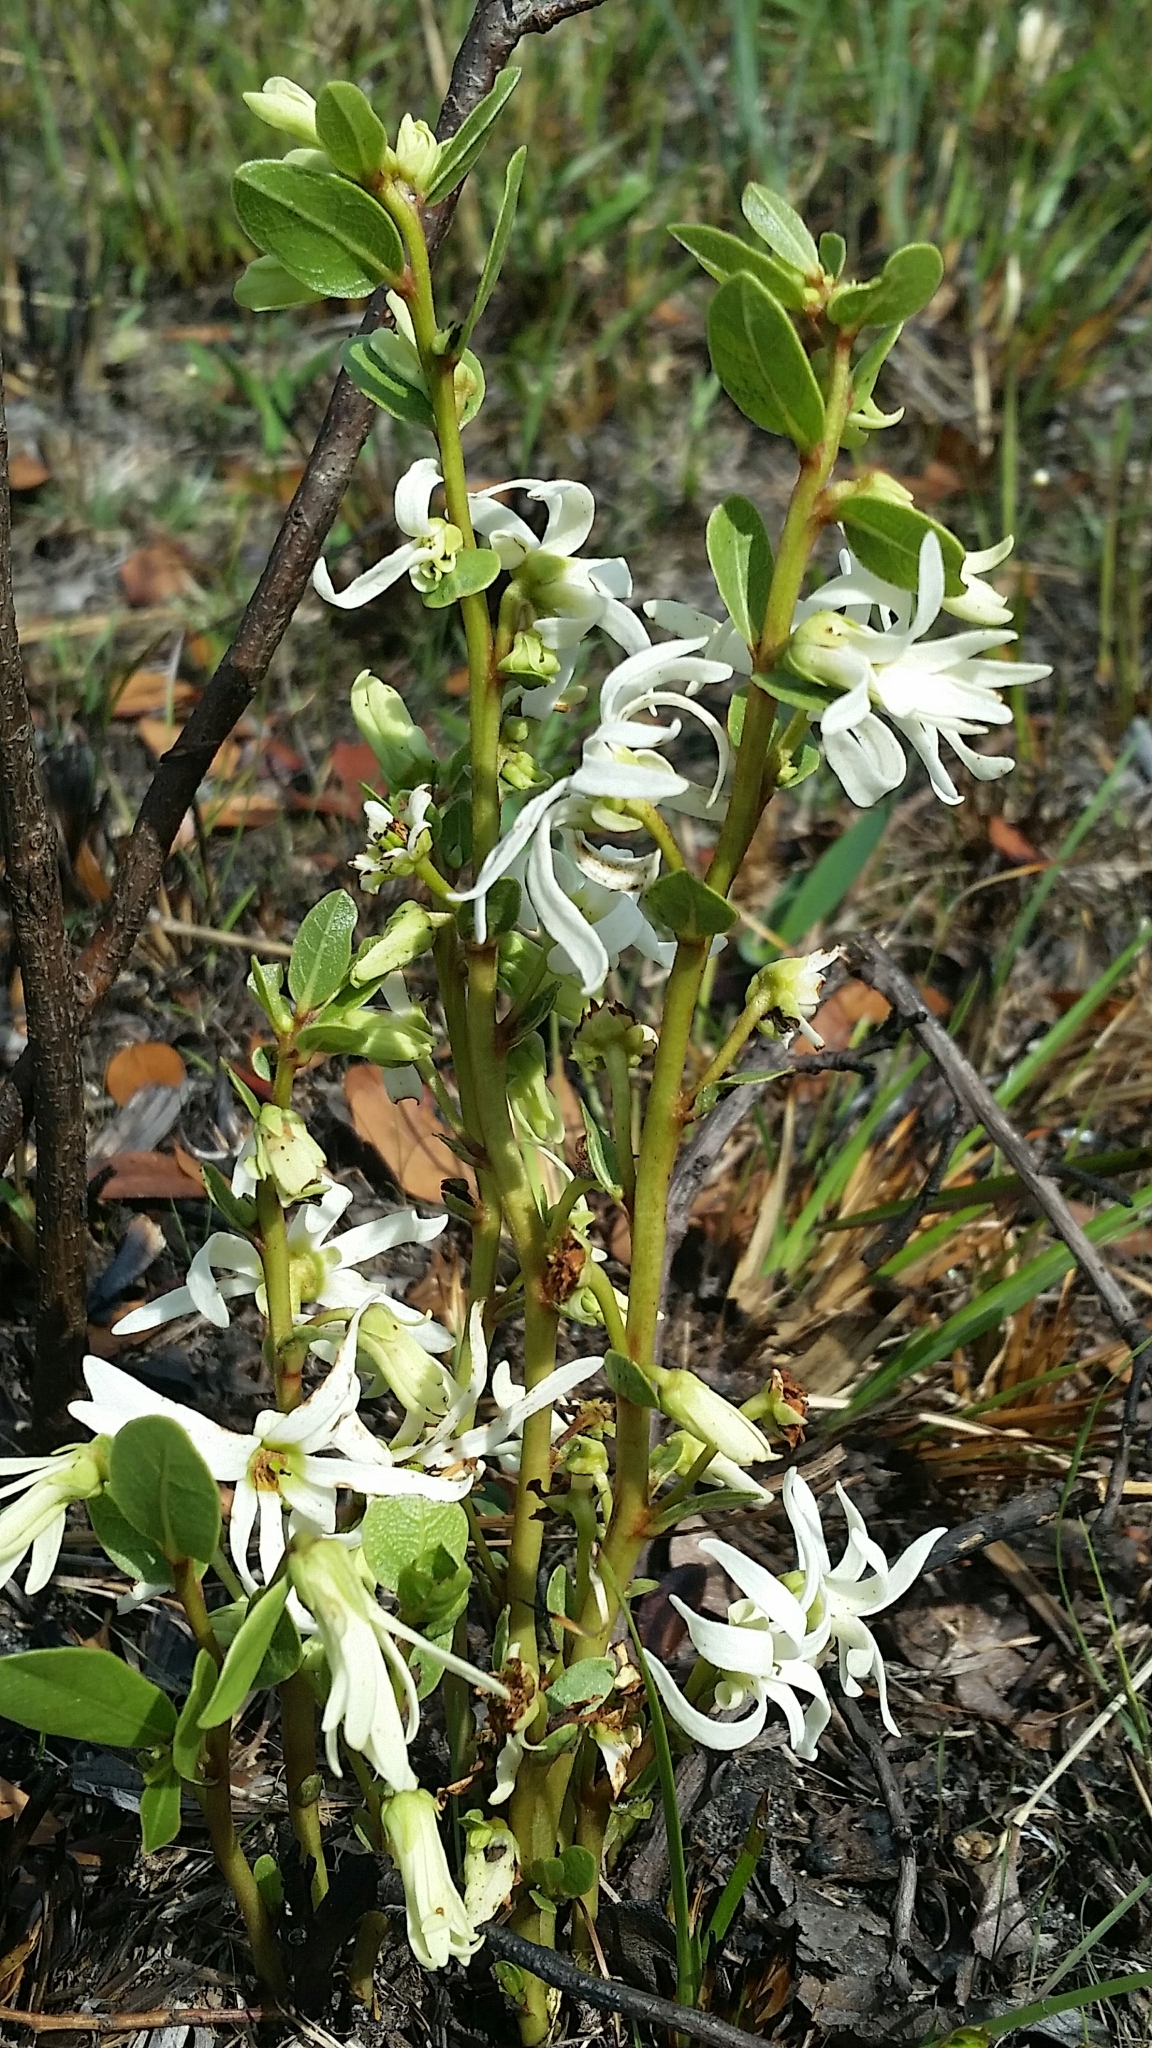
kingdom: Plantae
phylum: Tracheophyta
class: Magnoliopsida
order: Magnoliales
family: Annonaceae
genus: Asimina
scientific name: Asimina pulchella
